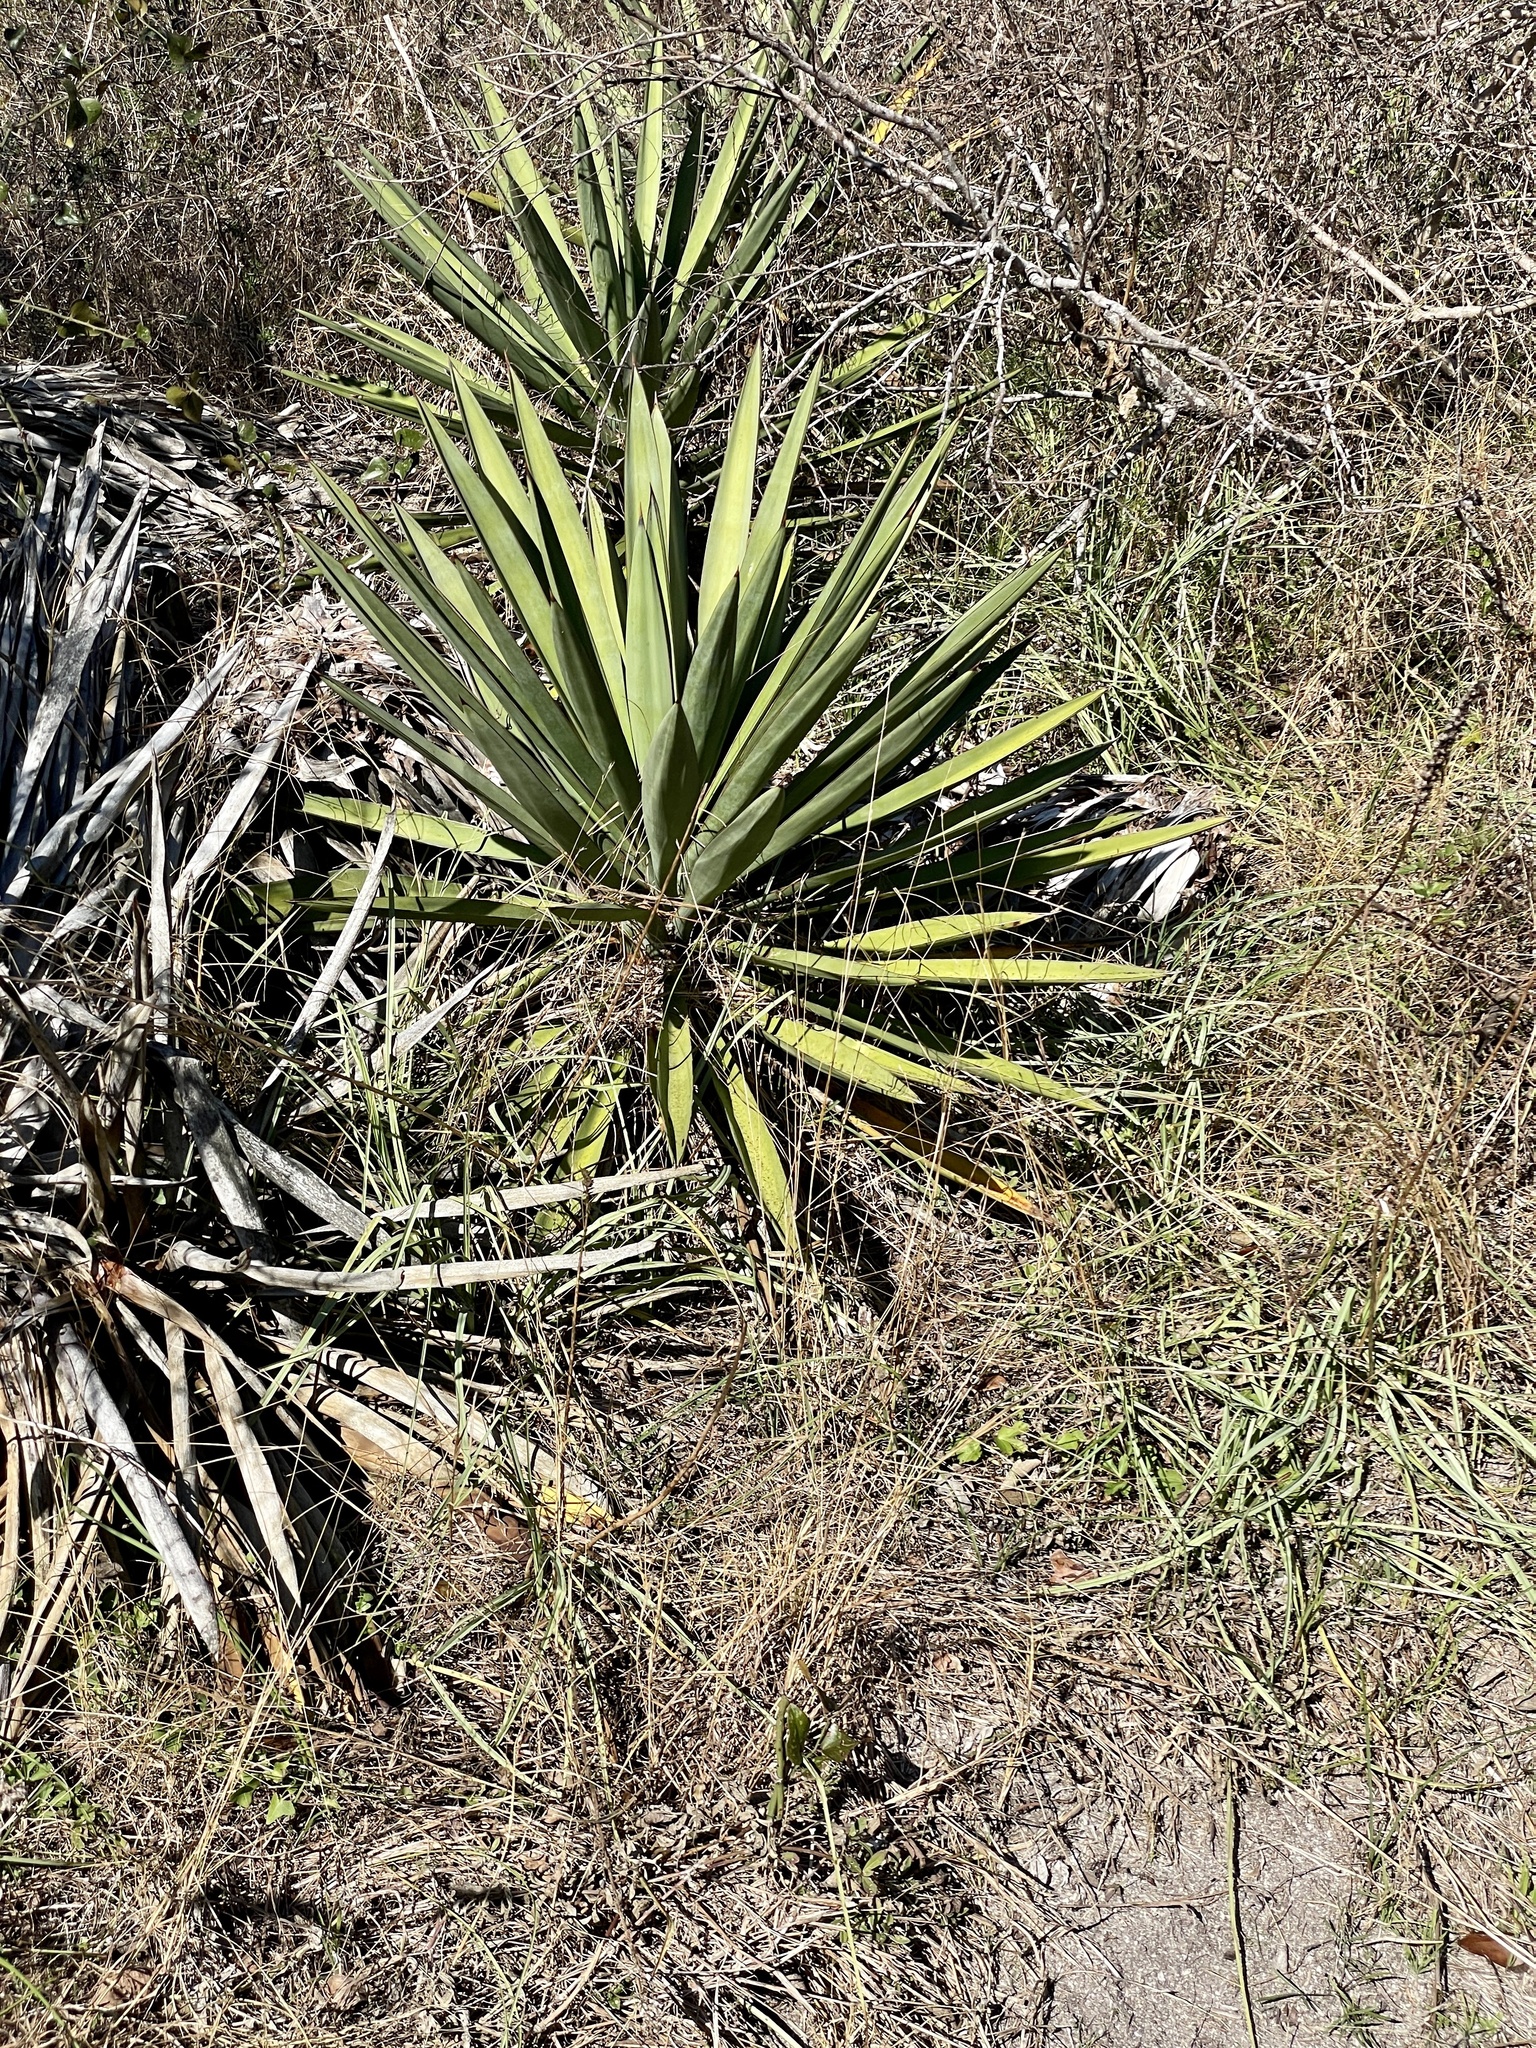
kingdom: Plantae
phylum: Tracheophyta
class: Liliopsida
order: Asparagales
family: Asparagaceae
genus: Yucca
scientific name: Yucca treculiana
